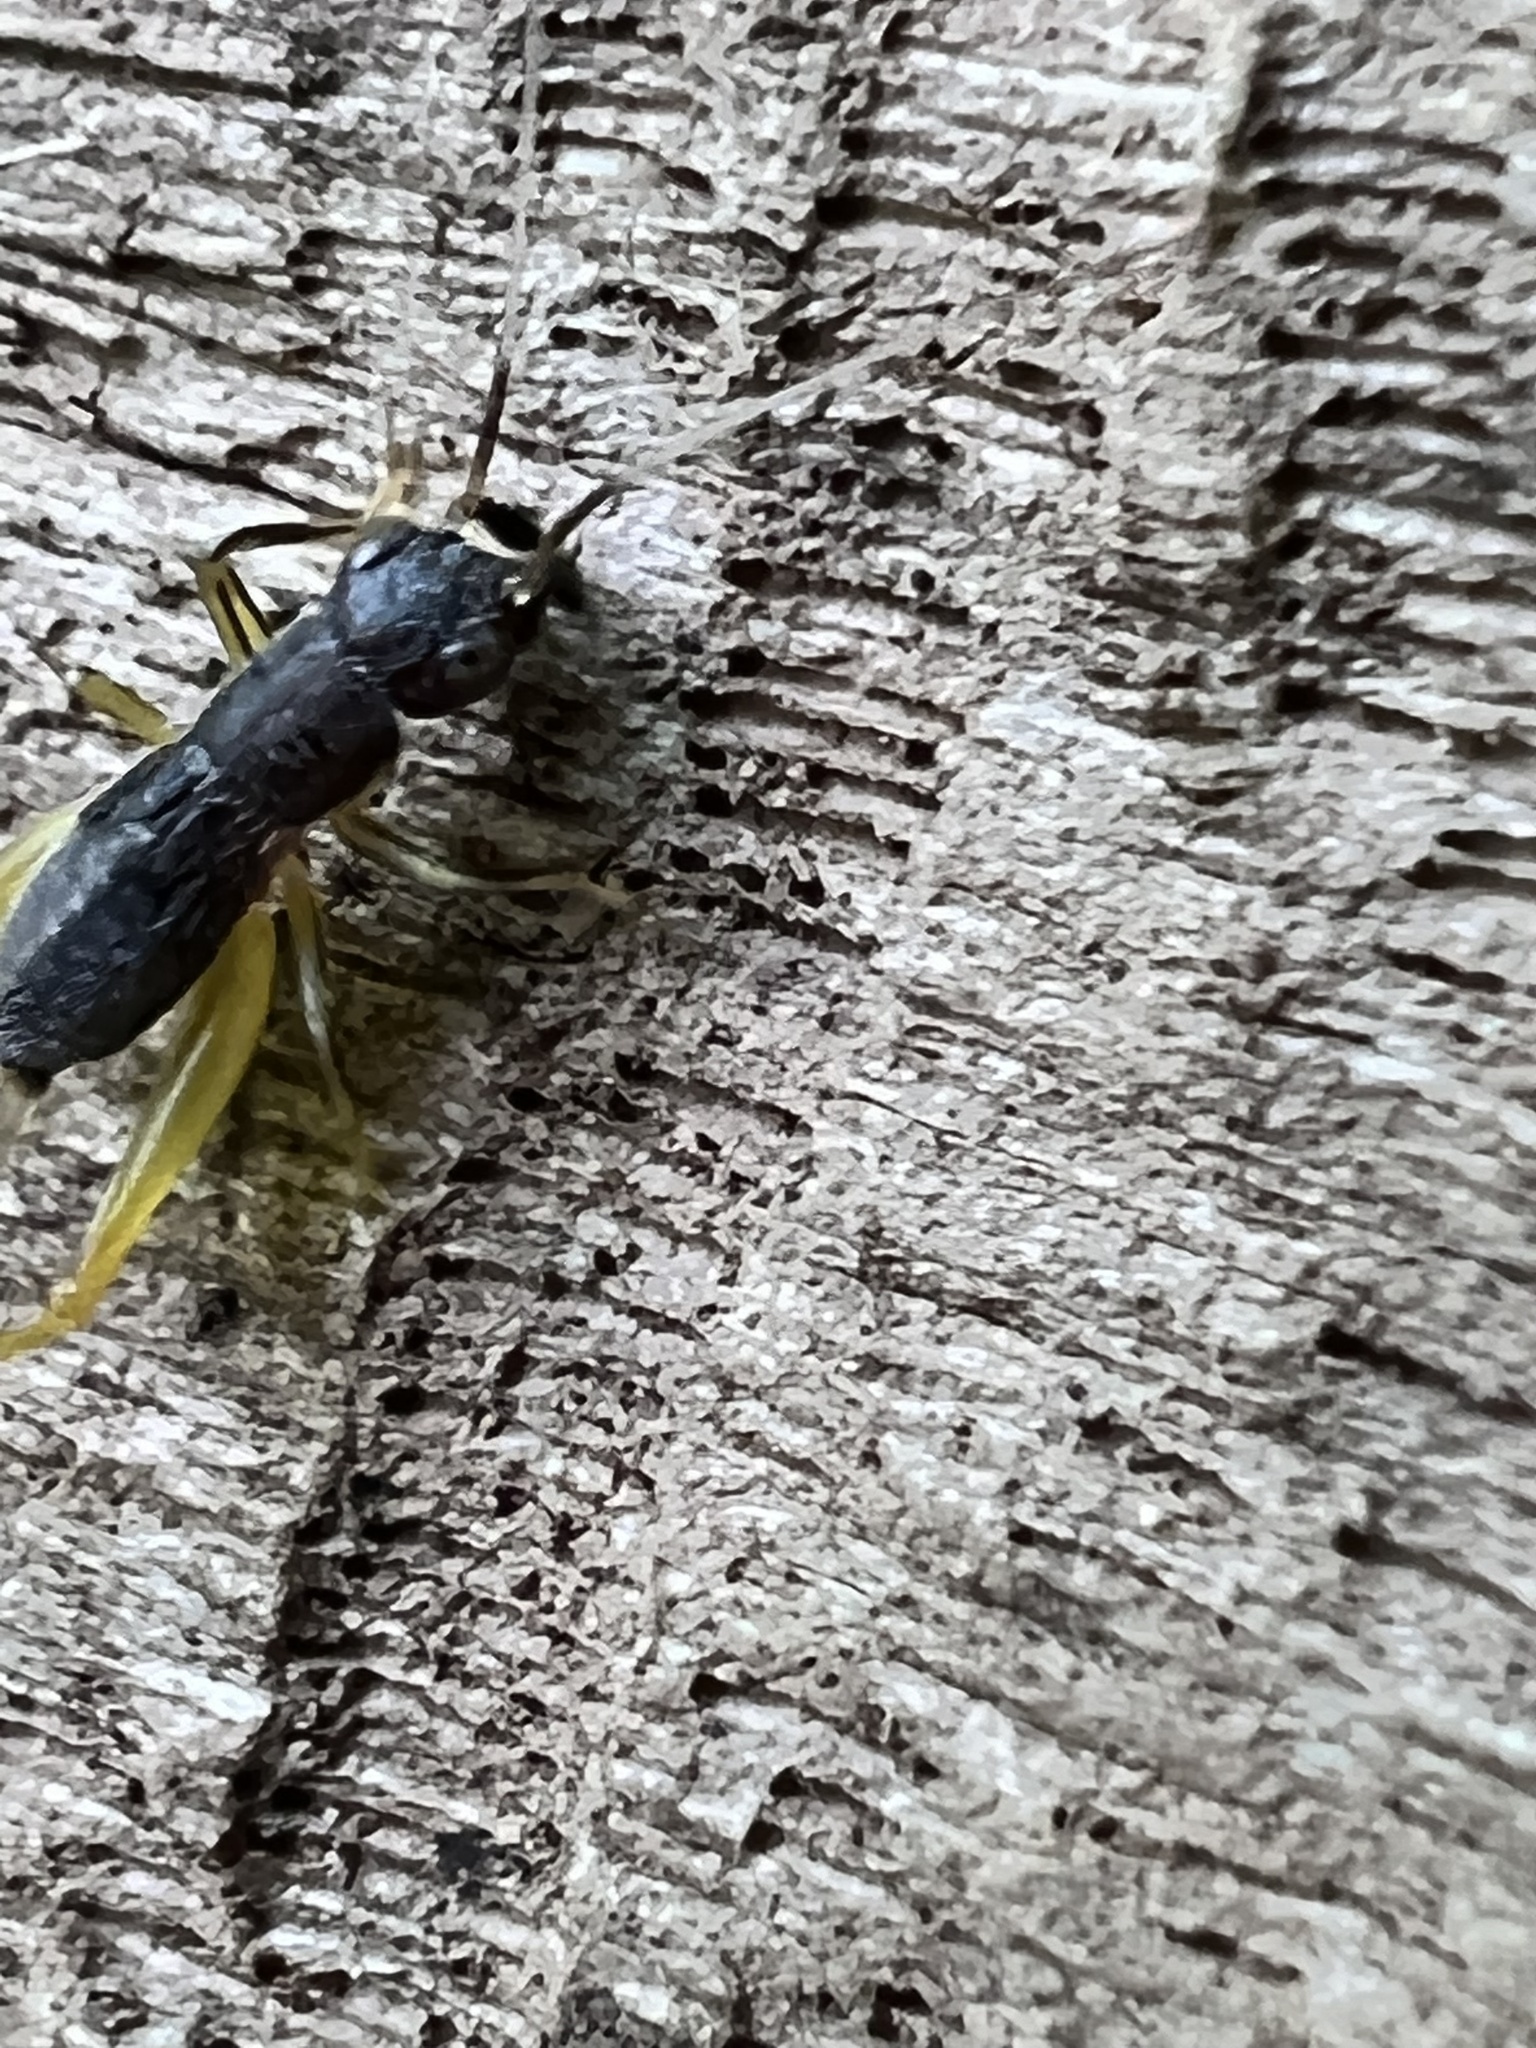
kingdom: Animalia
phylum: Arthropoda
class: Insecta
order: Orthoptera
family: Trigonidiidae
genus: Phyllopalpus
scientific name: Phyllopalpus pulchellus
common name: Handsome trig
